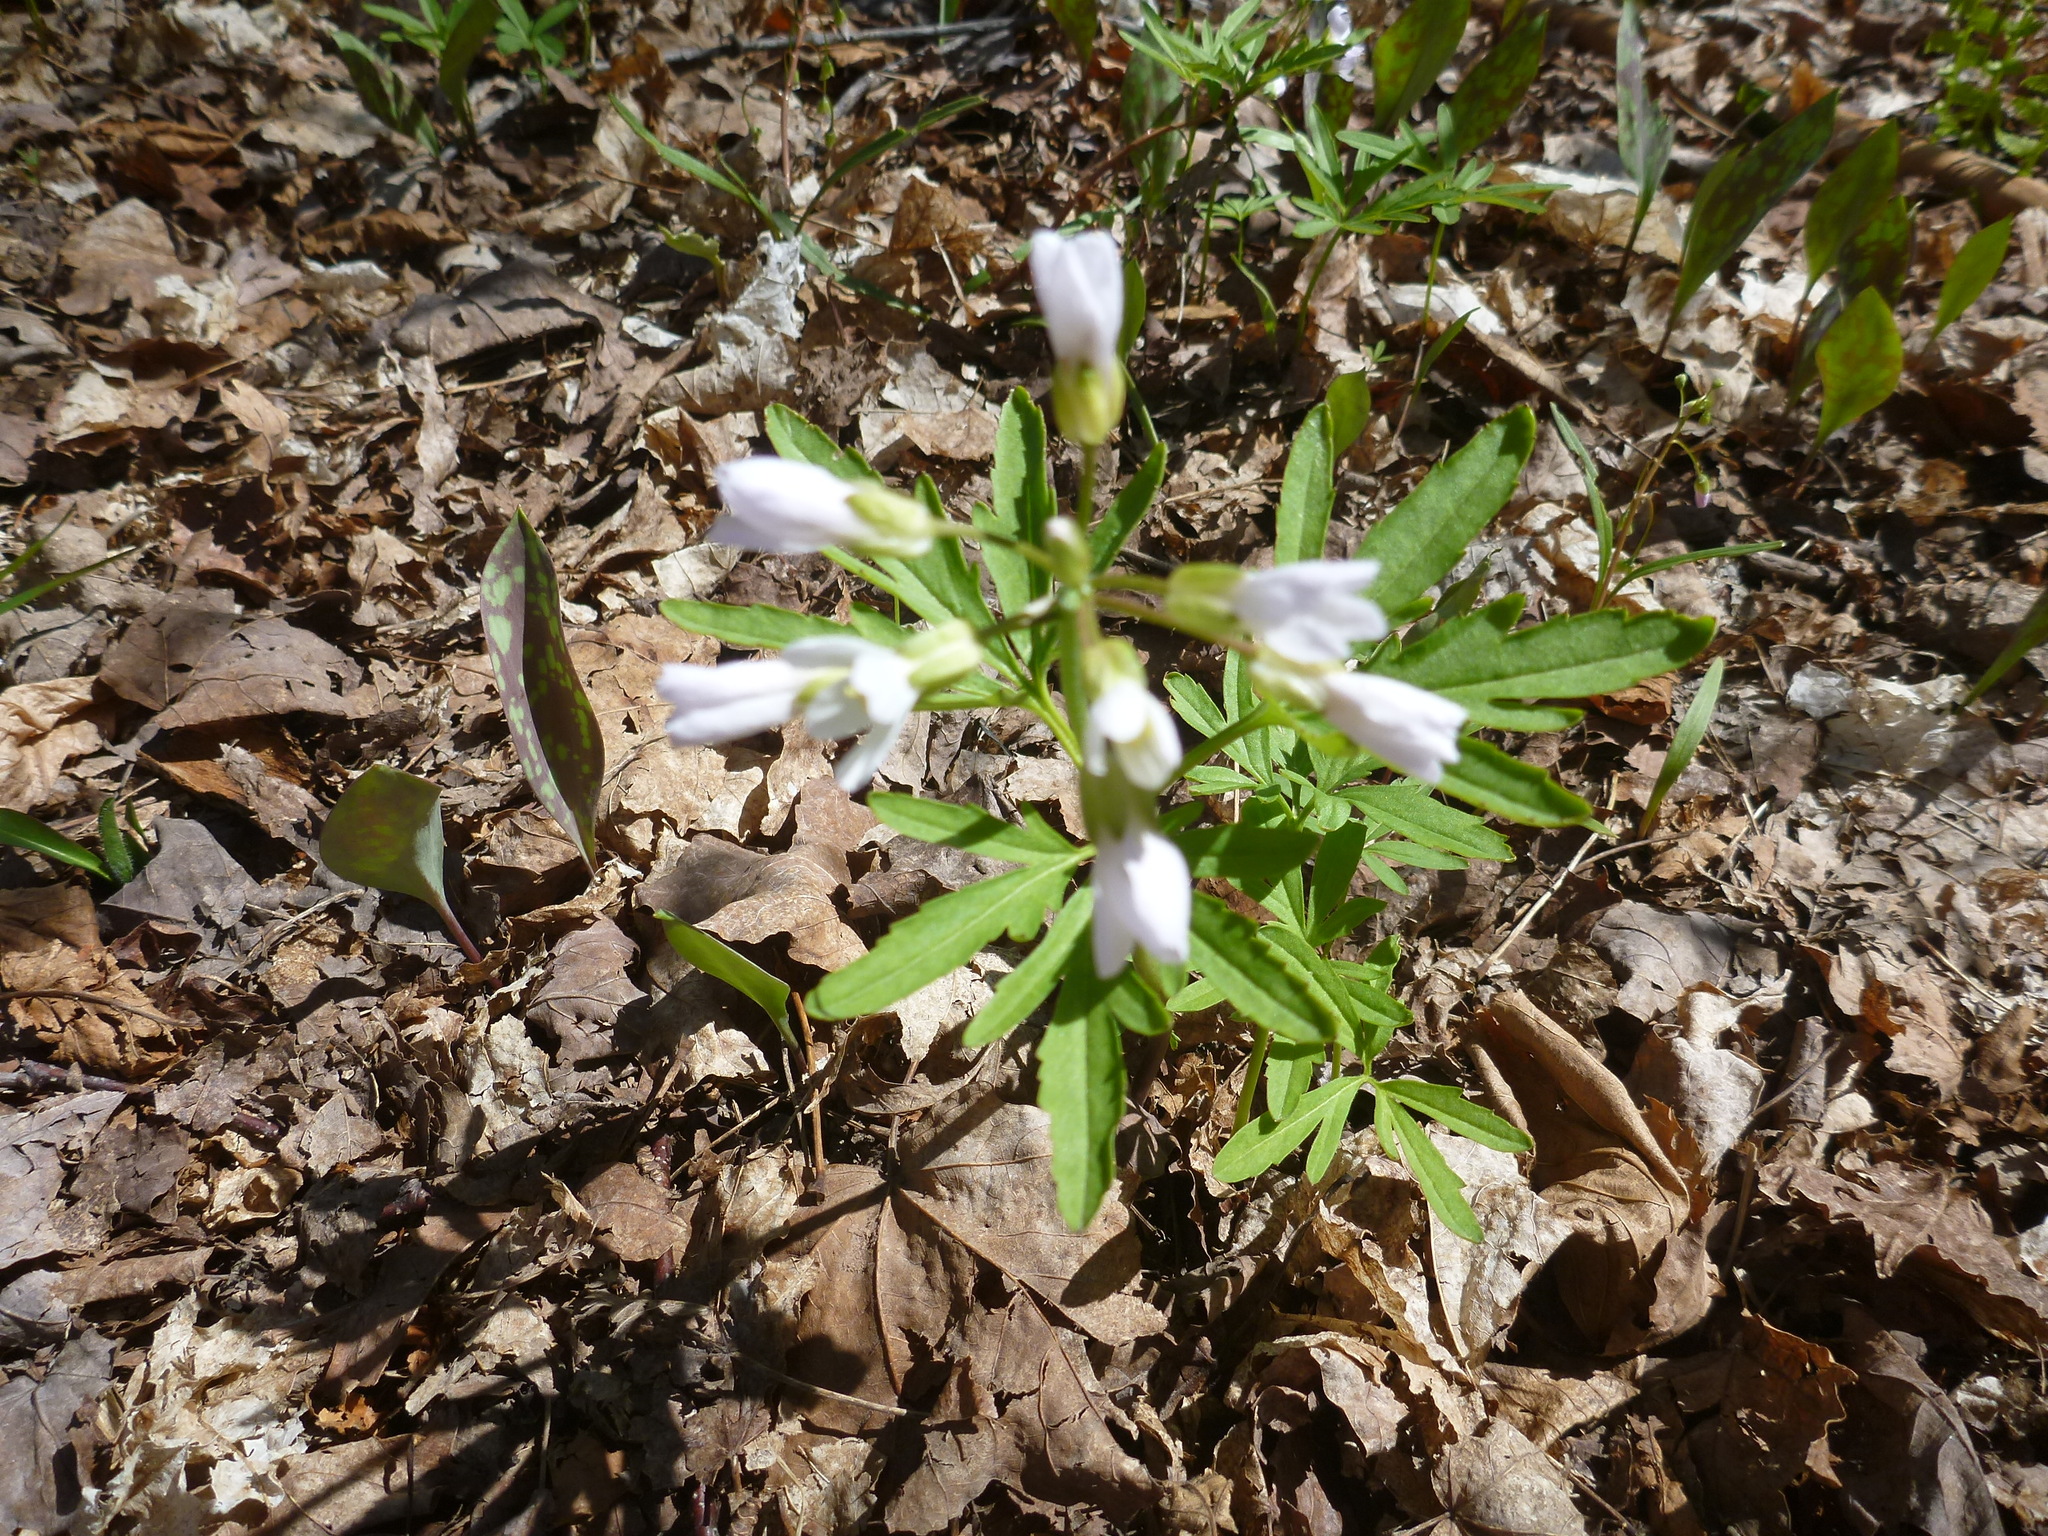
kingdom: Plantae
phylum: Tracheophyta
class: Magnoliopsida
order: Brassicales
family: Brassicaceae
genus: Cardamine
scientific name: Cardamine concatenata
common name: Cut-leaf toothcup
